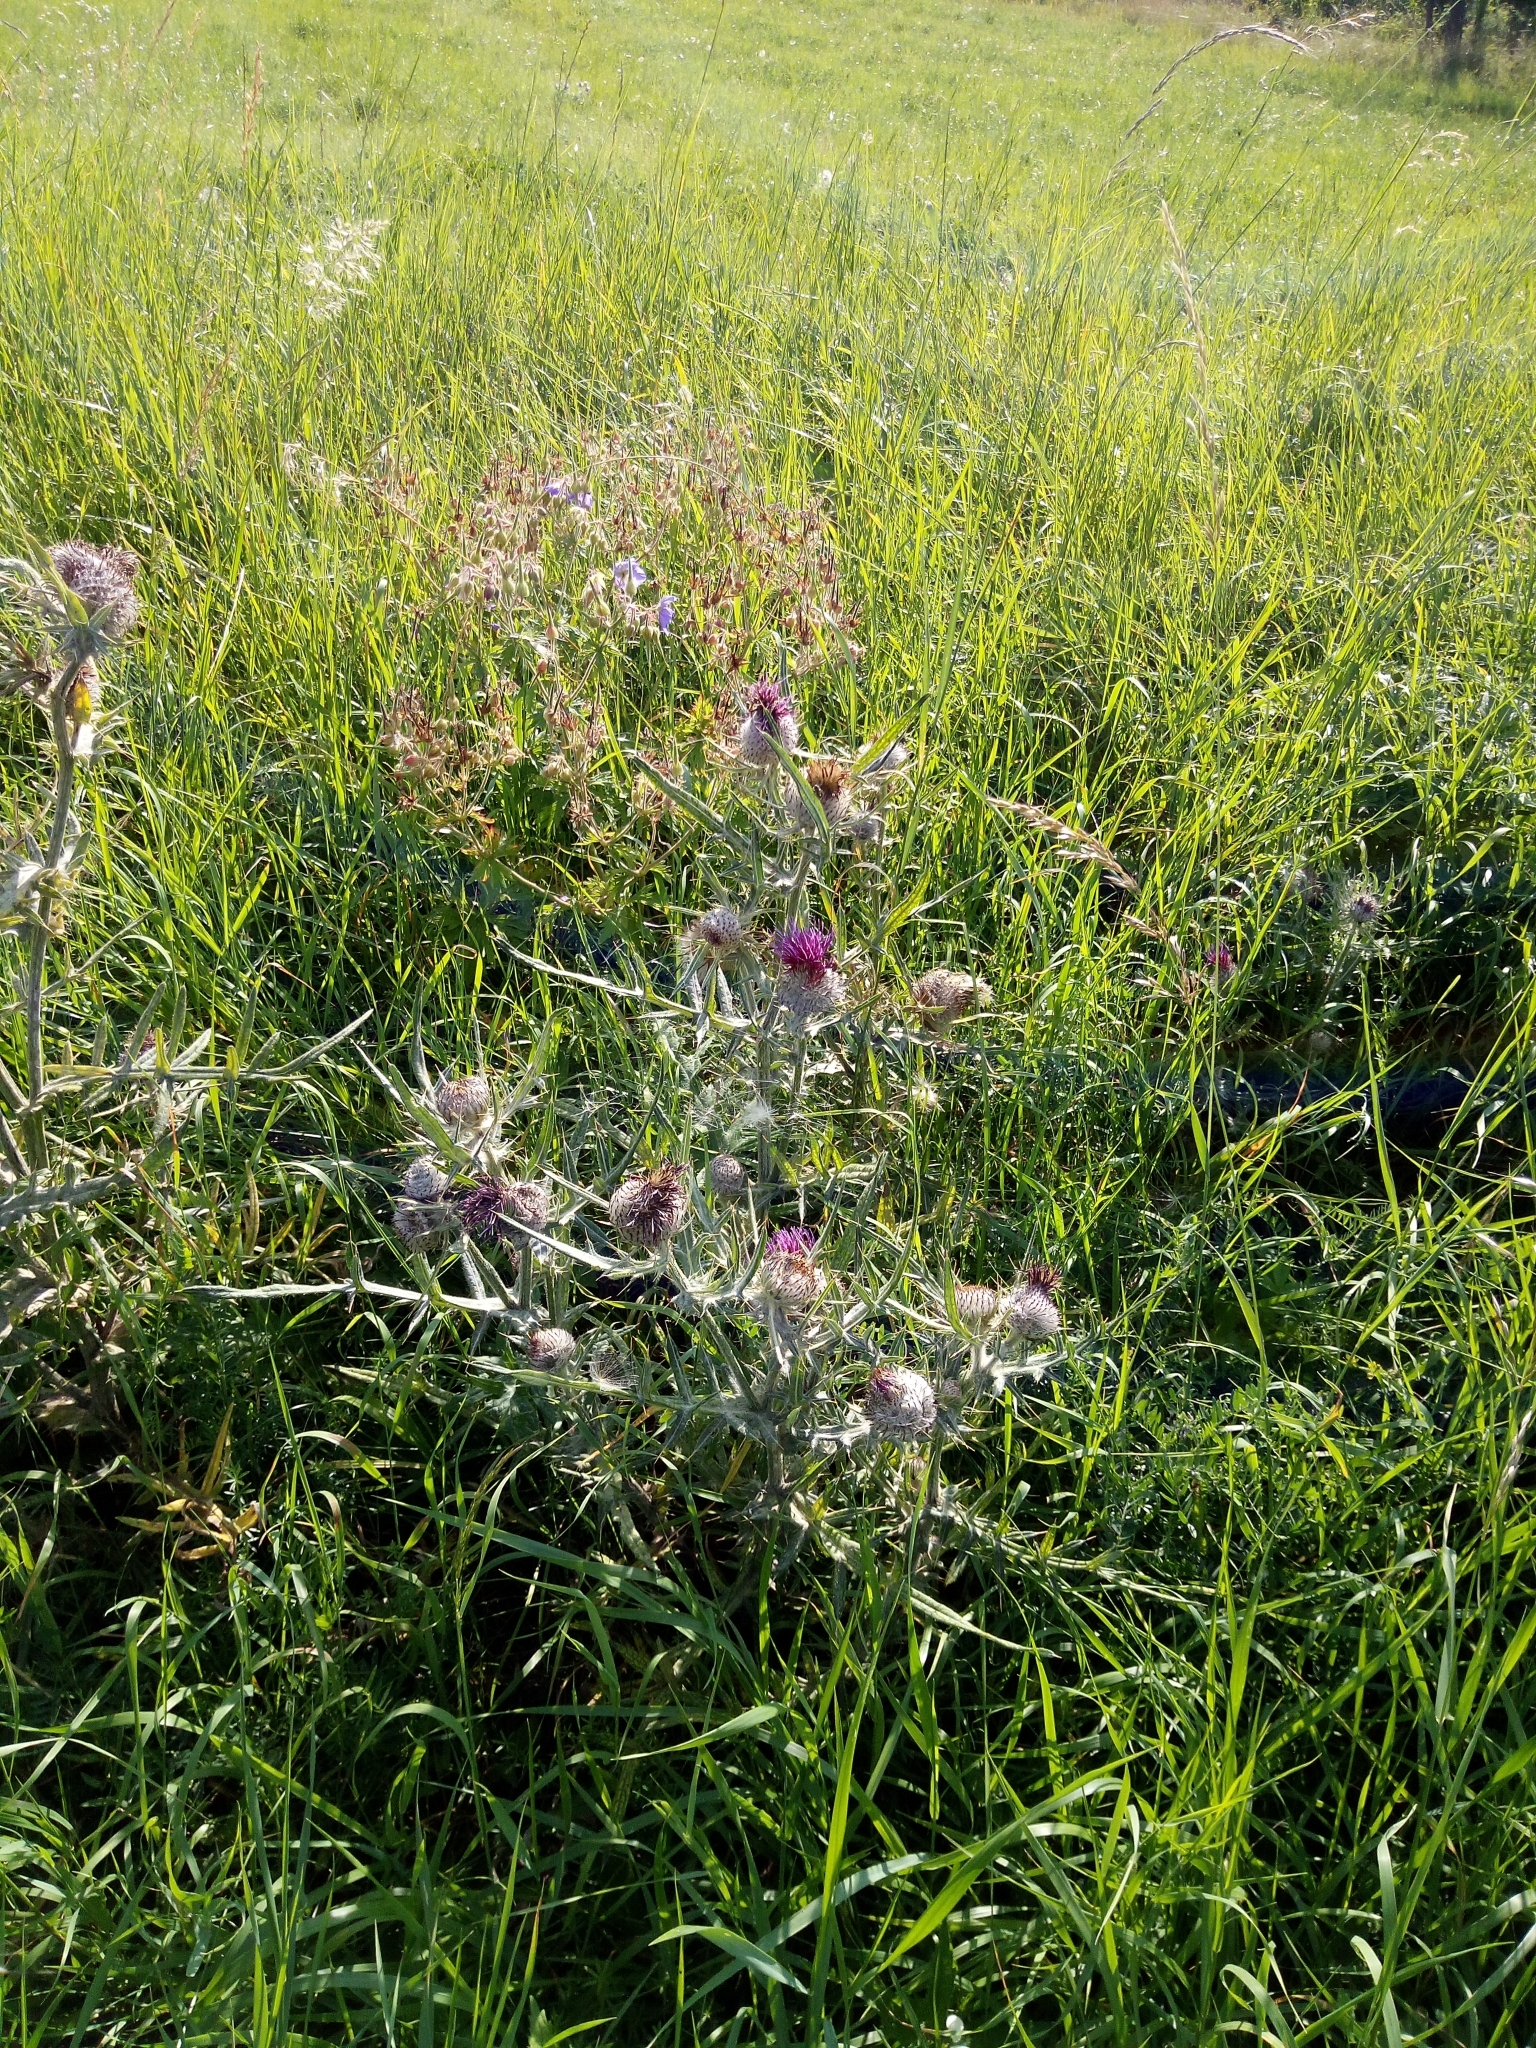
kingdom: Plantae
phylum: Tracheophyta
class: Magnoliopsida
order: Asterales
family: Asteraceae
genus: Lophiolepis
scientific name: Lophiolepis eriophora
